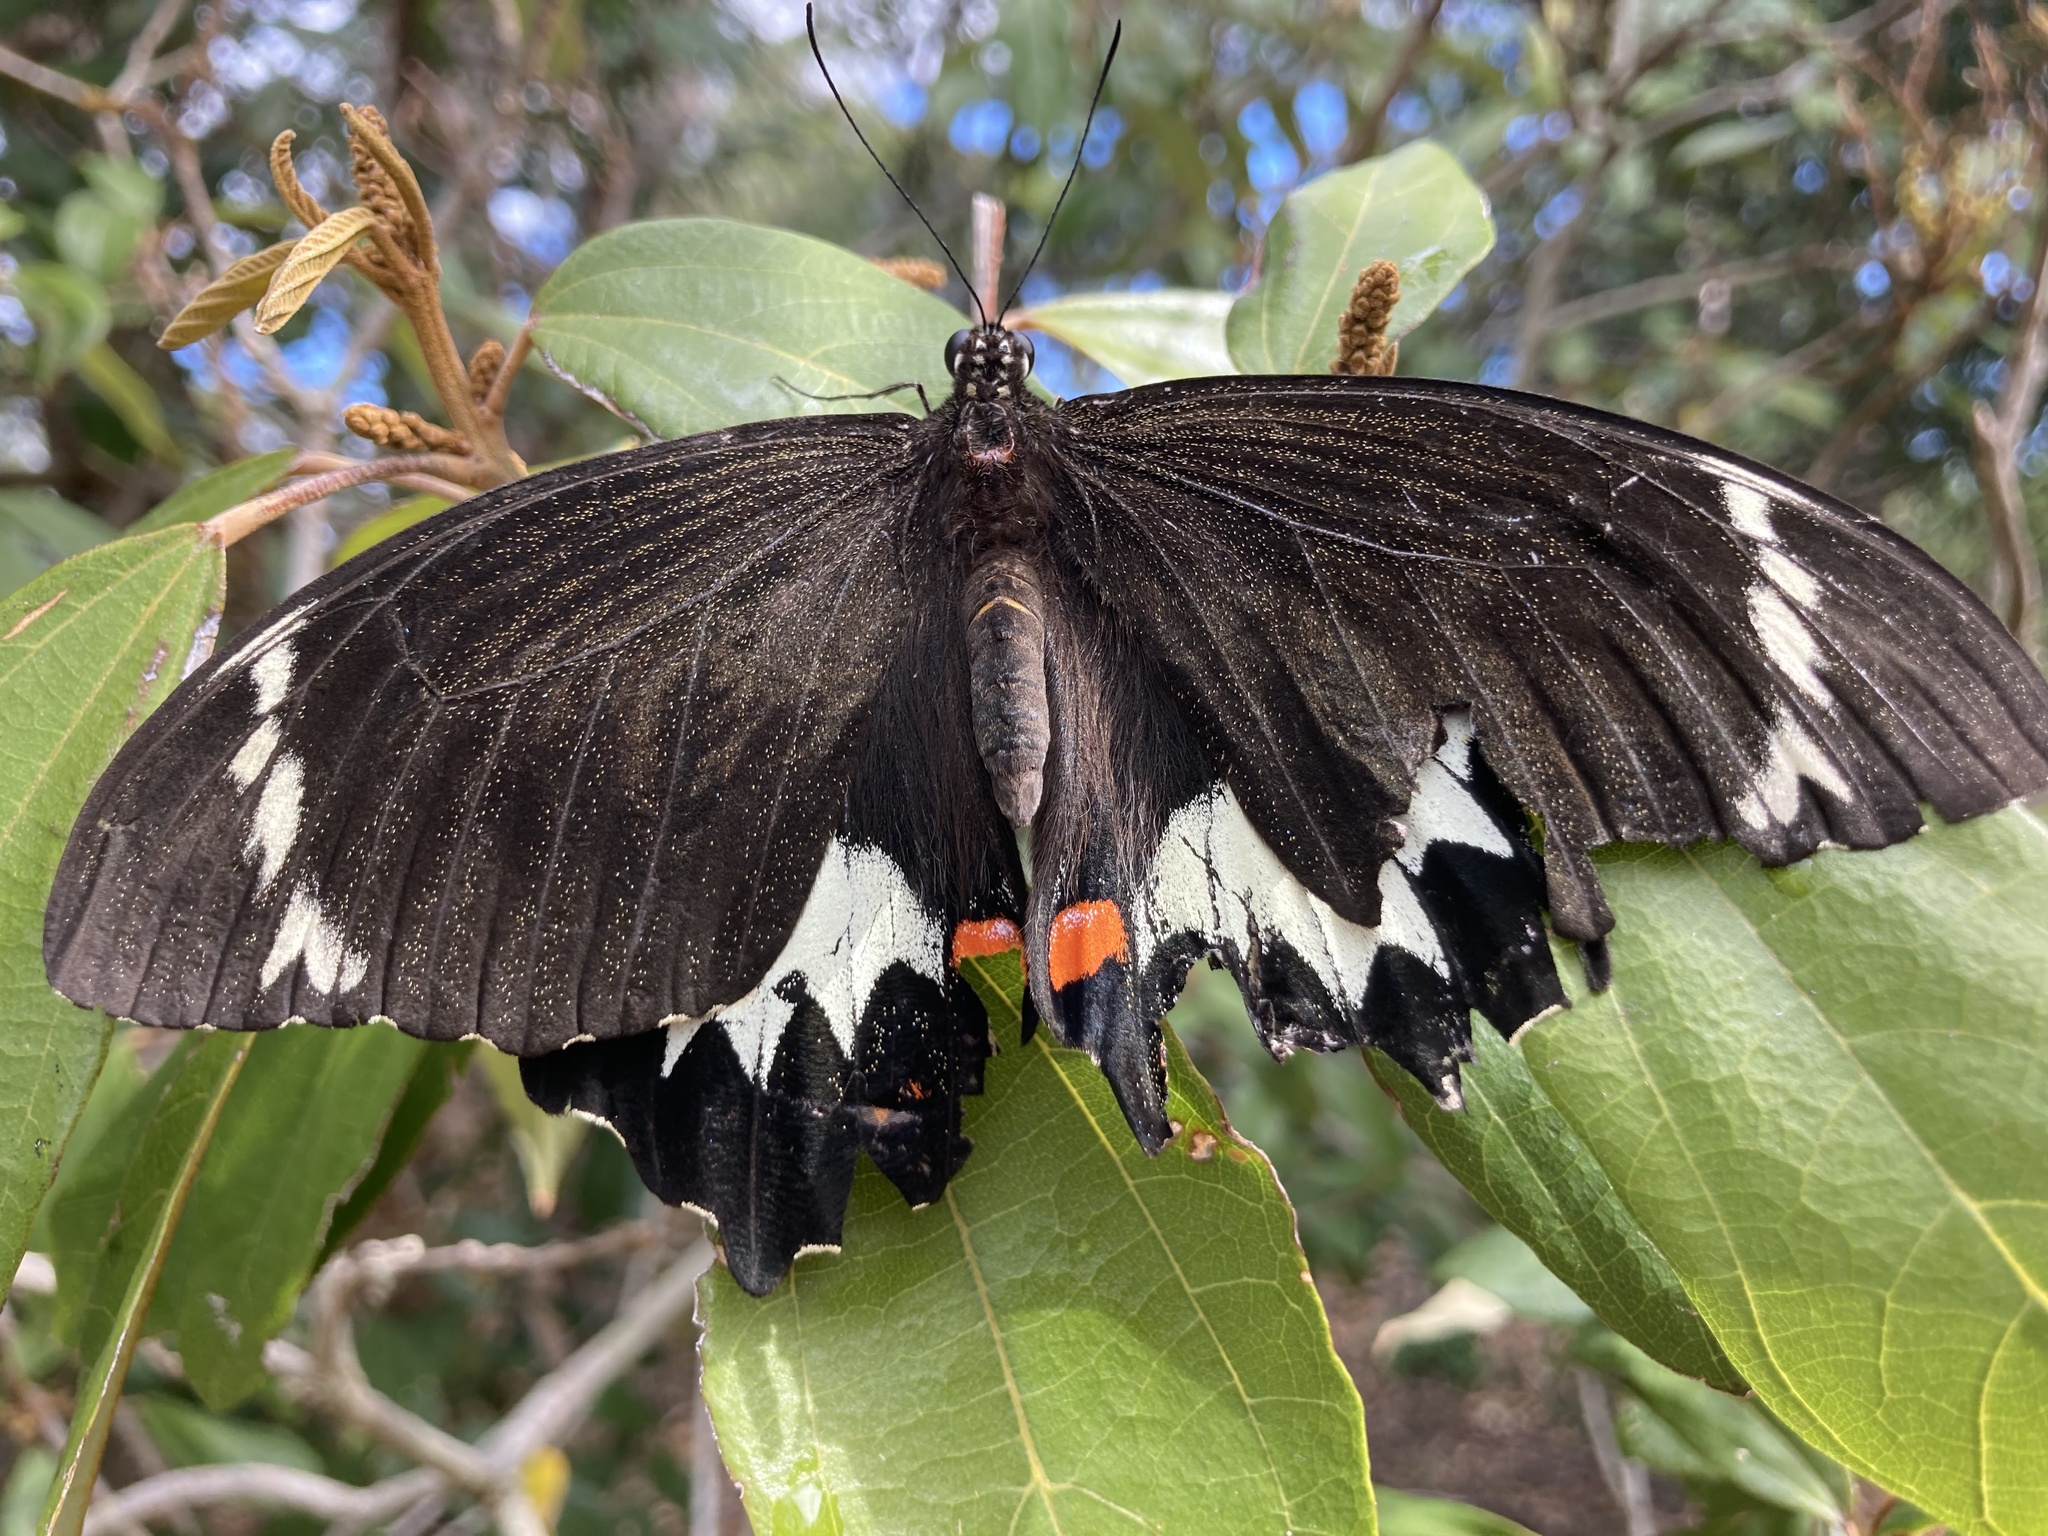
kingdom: Animalia
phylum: Arthropoda
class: Insecta
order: Lepidoptera
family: Papilionidae
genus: Papilio
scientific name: Papilio aegeus
